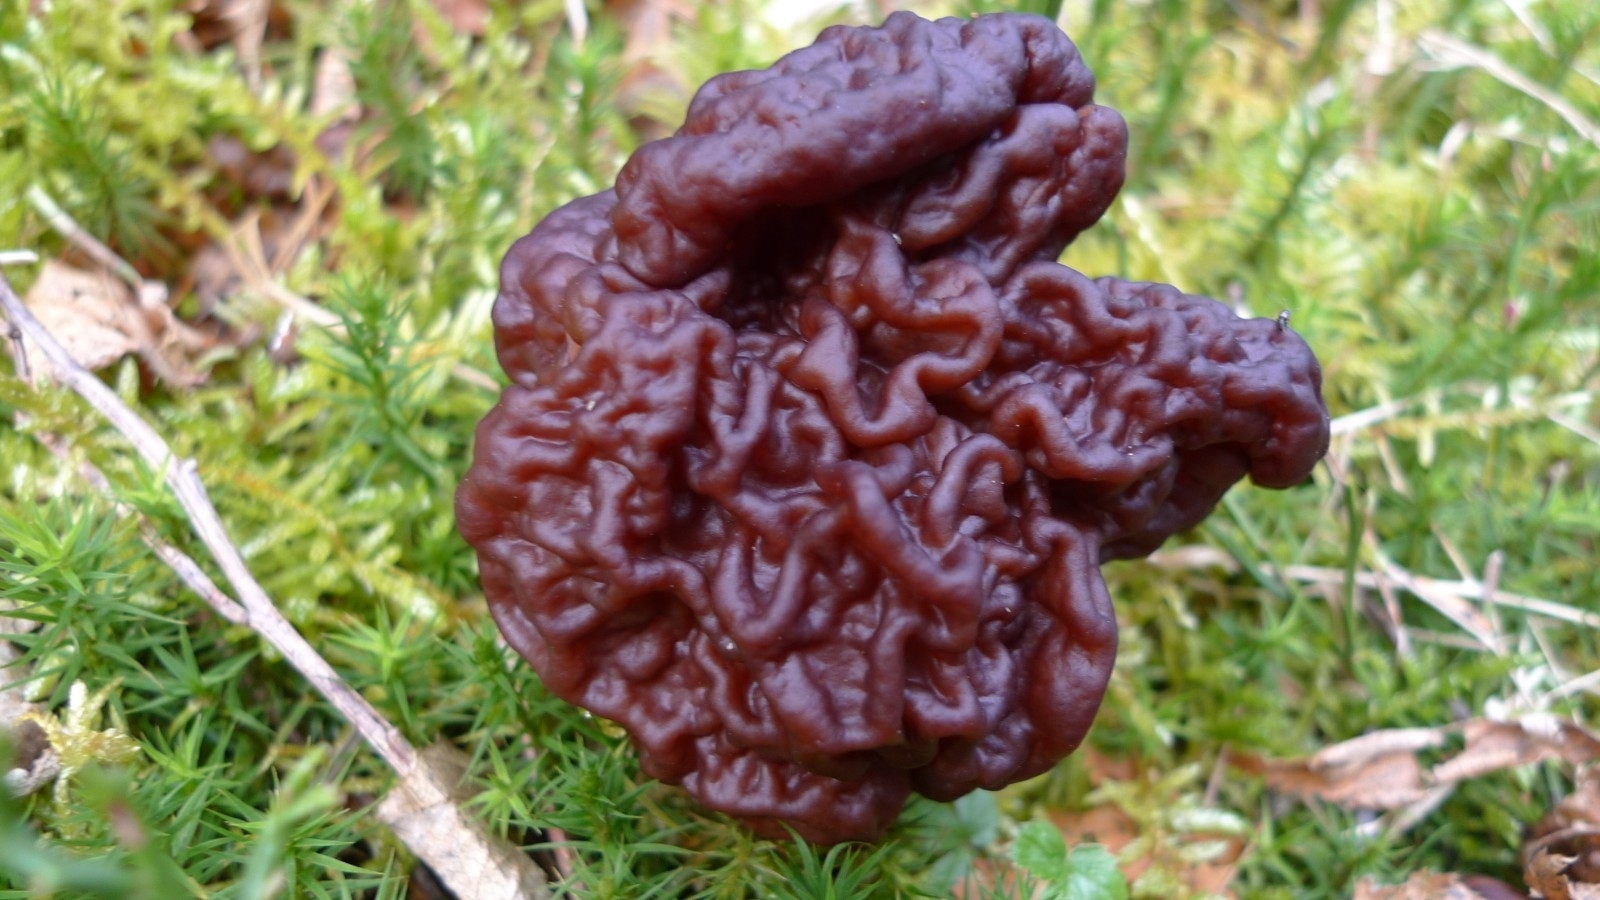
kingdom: Fungi
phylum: Ascomycota
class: Pezizomycetes
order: Pezizales
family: Discinaceae
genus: Gyromitra
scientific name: Gyromitra esculenta
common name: False morel
